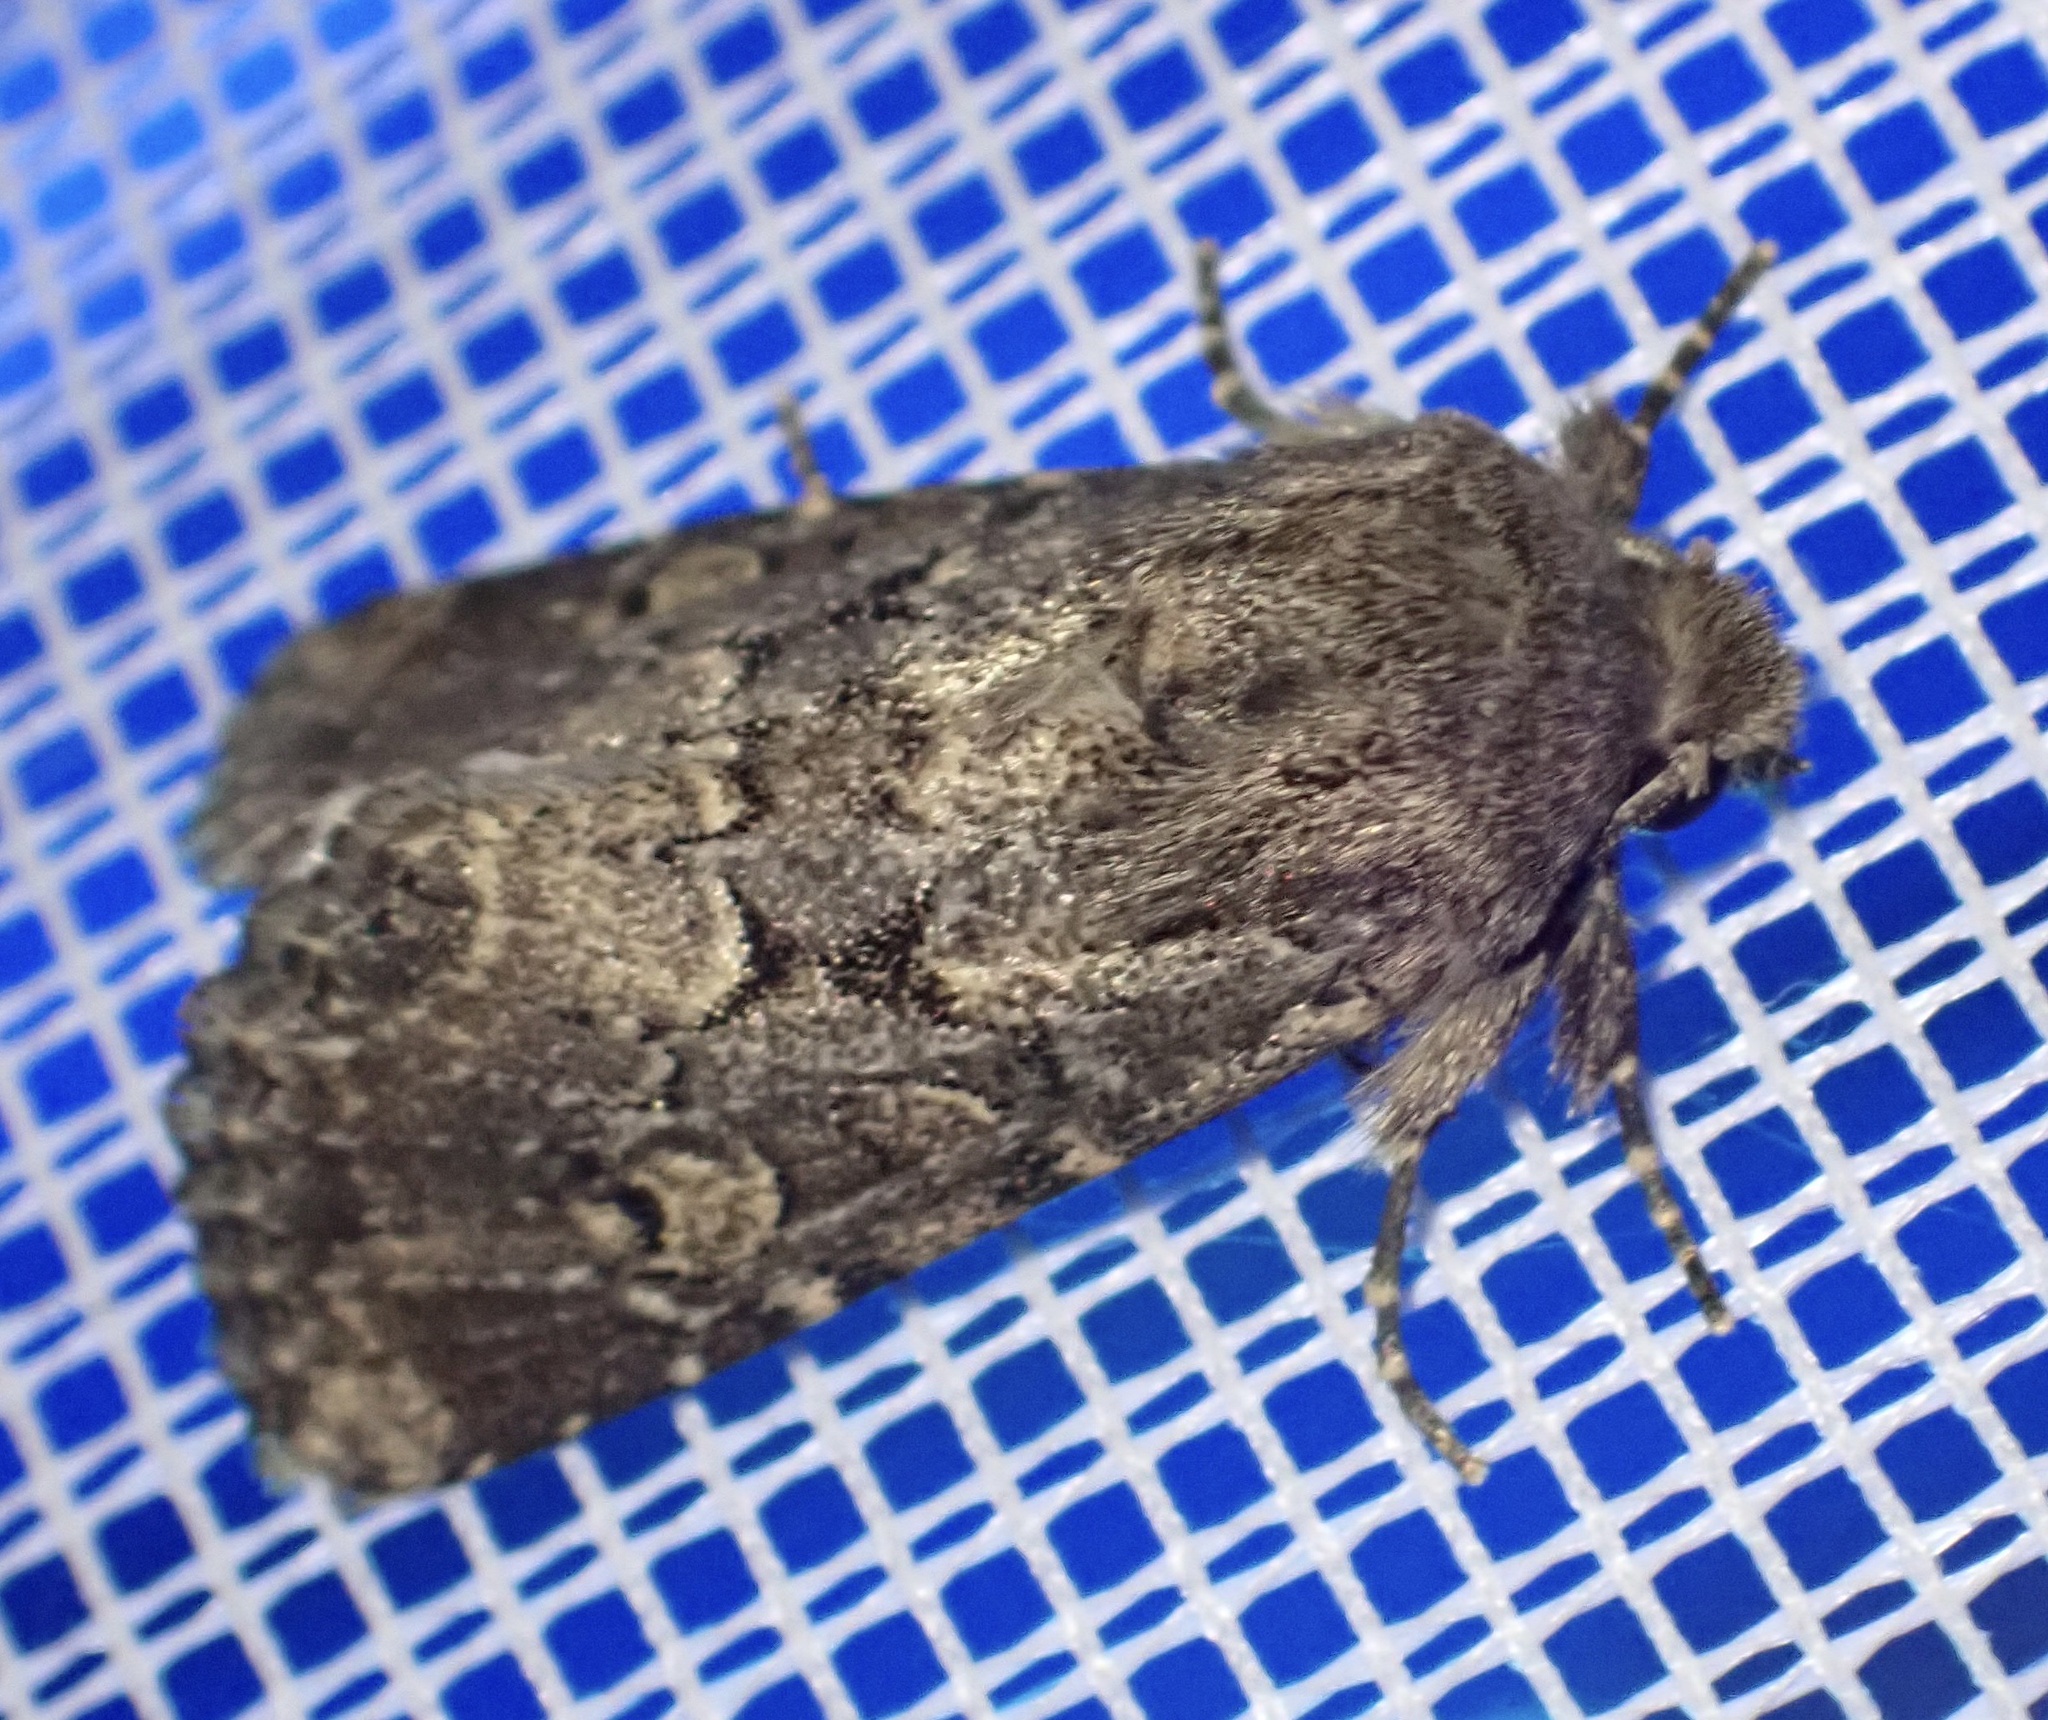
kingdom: Animalia
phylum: Arthropoda
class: Insecta
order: Lepidoptera
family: Noctuidae
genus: Luperina
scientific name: Luperina testacea
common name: Flounced rustic
